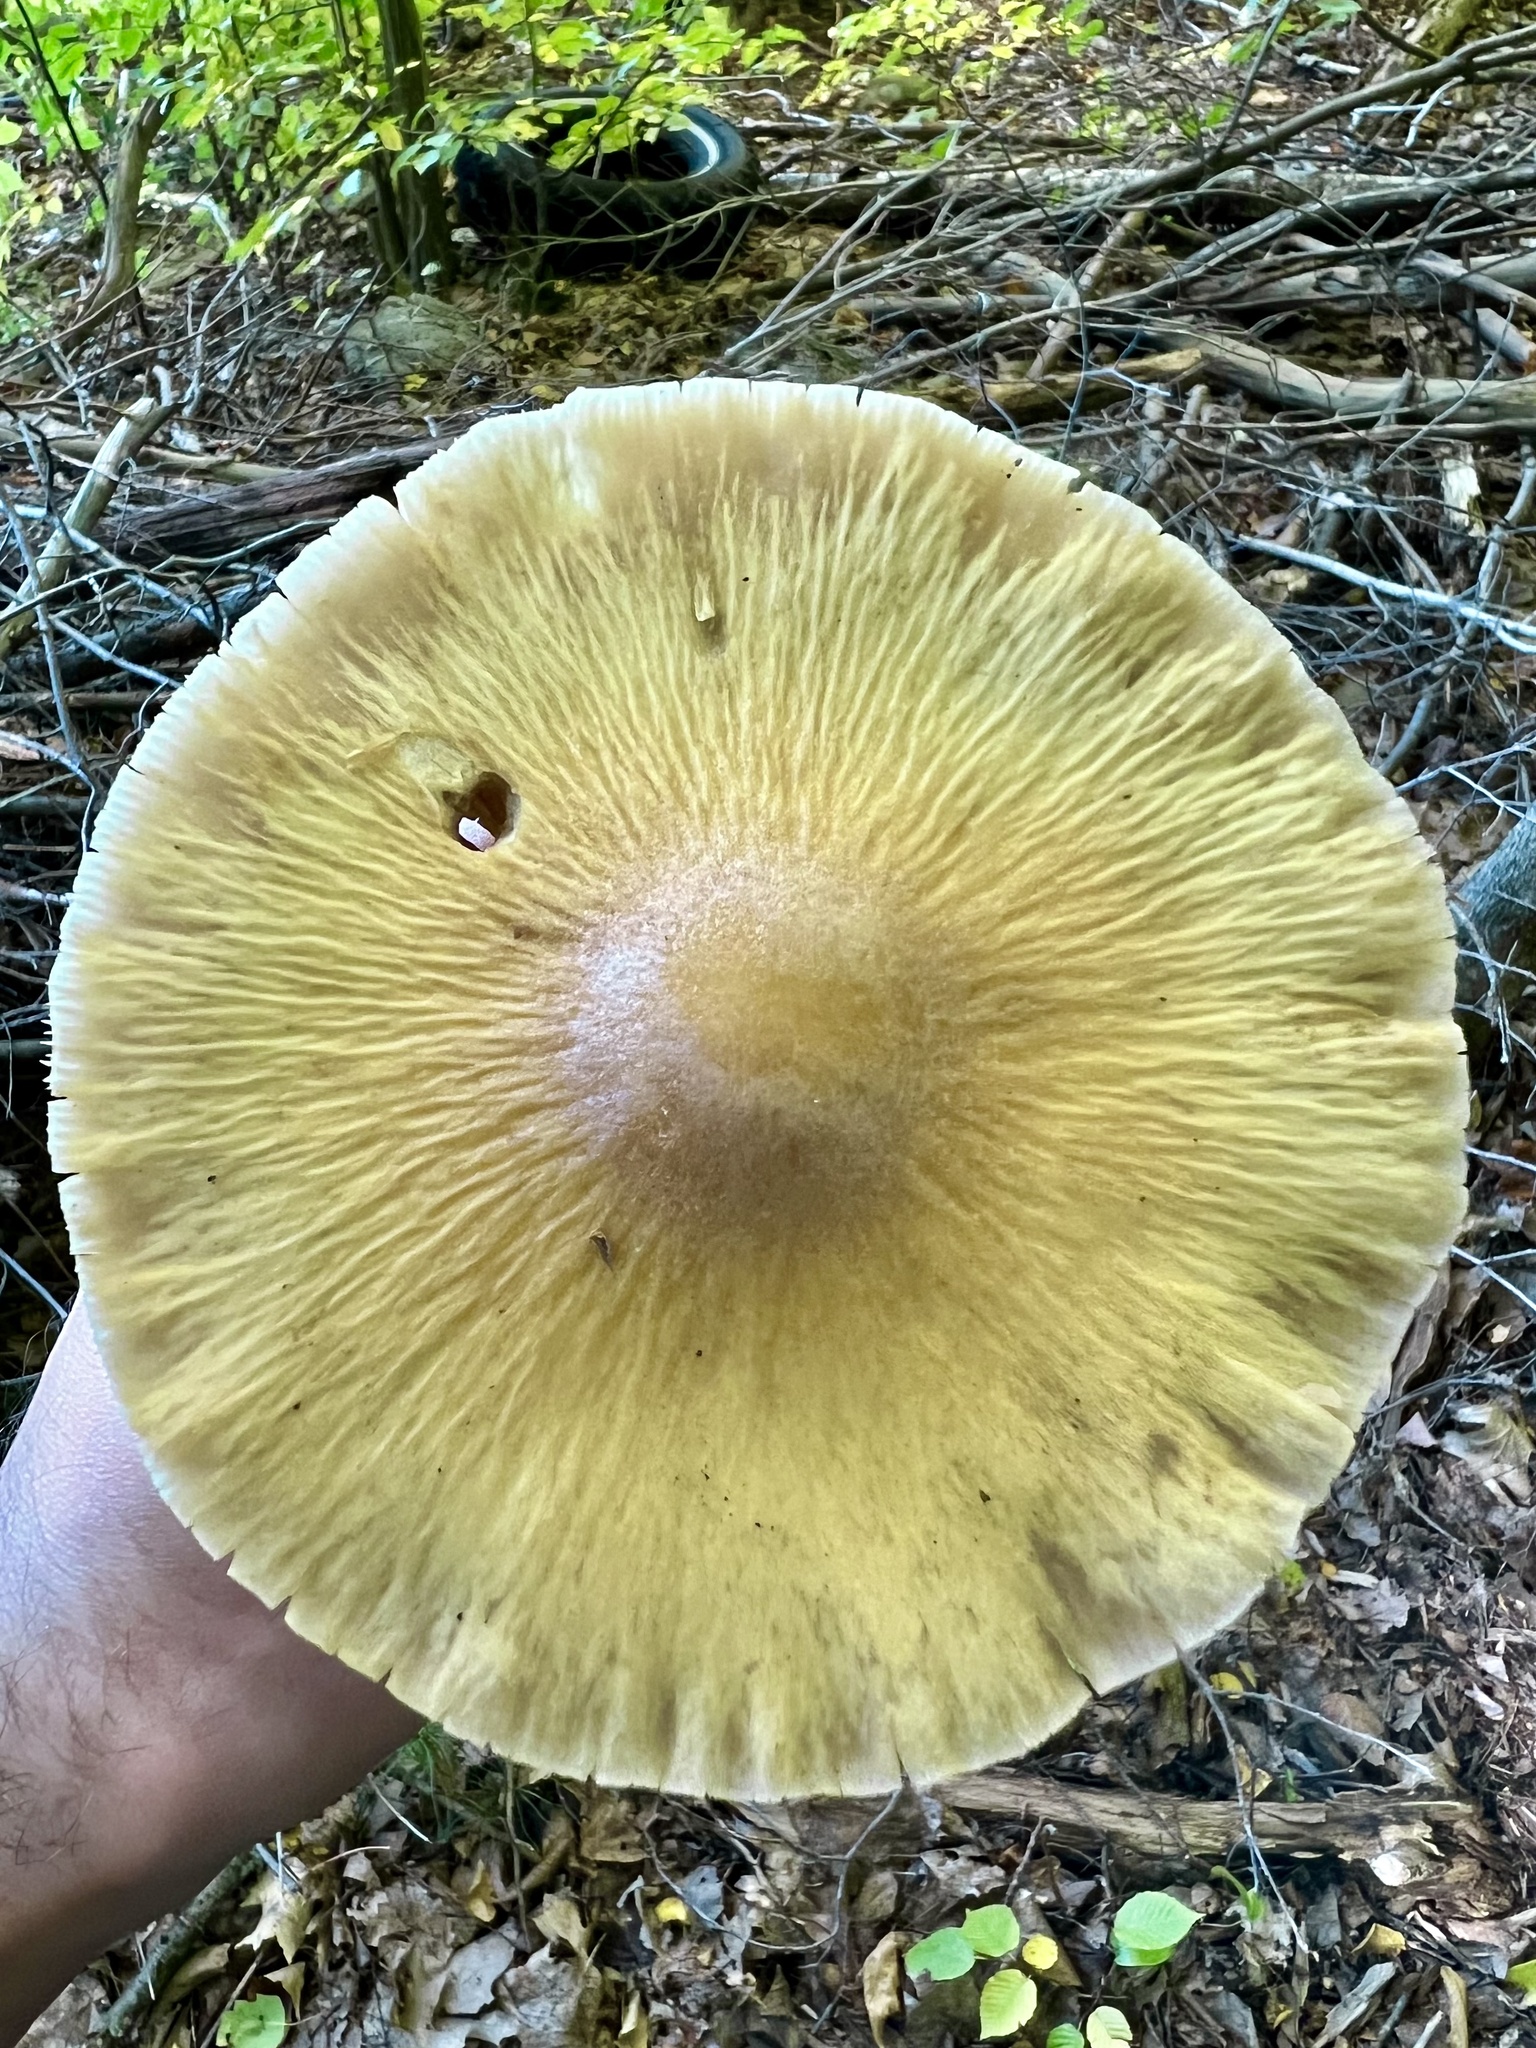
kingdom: Fungi
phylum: Basidiomycota
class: Agaricomycetes
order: Agaricales
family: Cortinariaceae
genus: Cortinarius
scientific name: Cortinarius caperatus
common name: The gypsy
